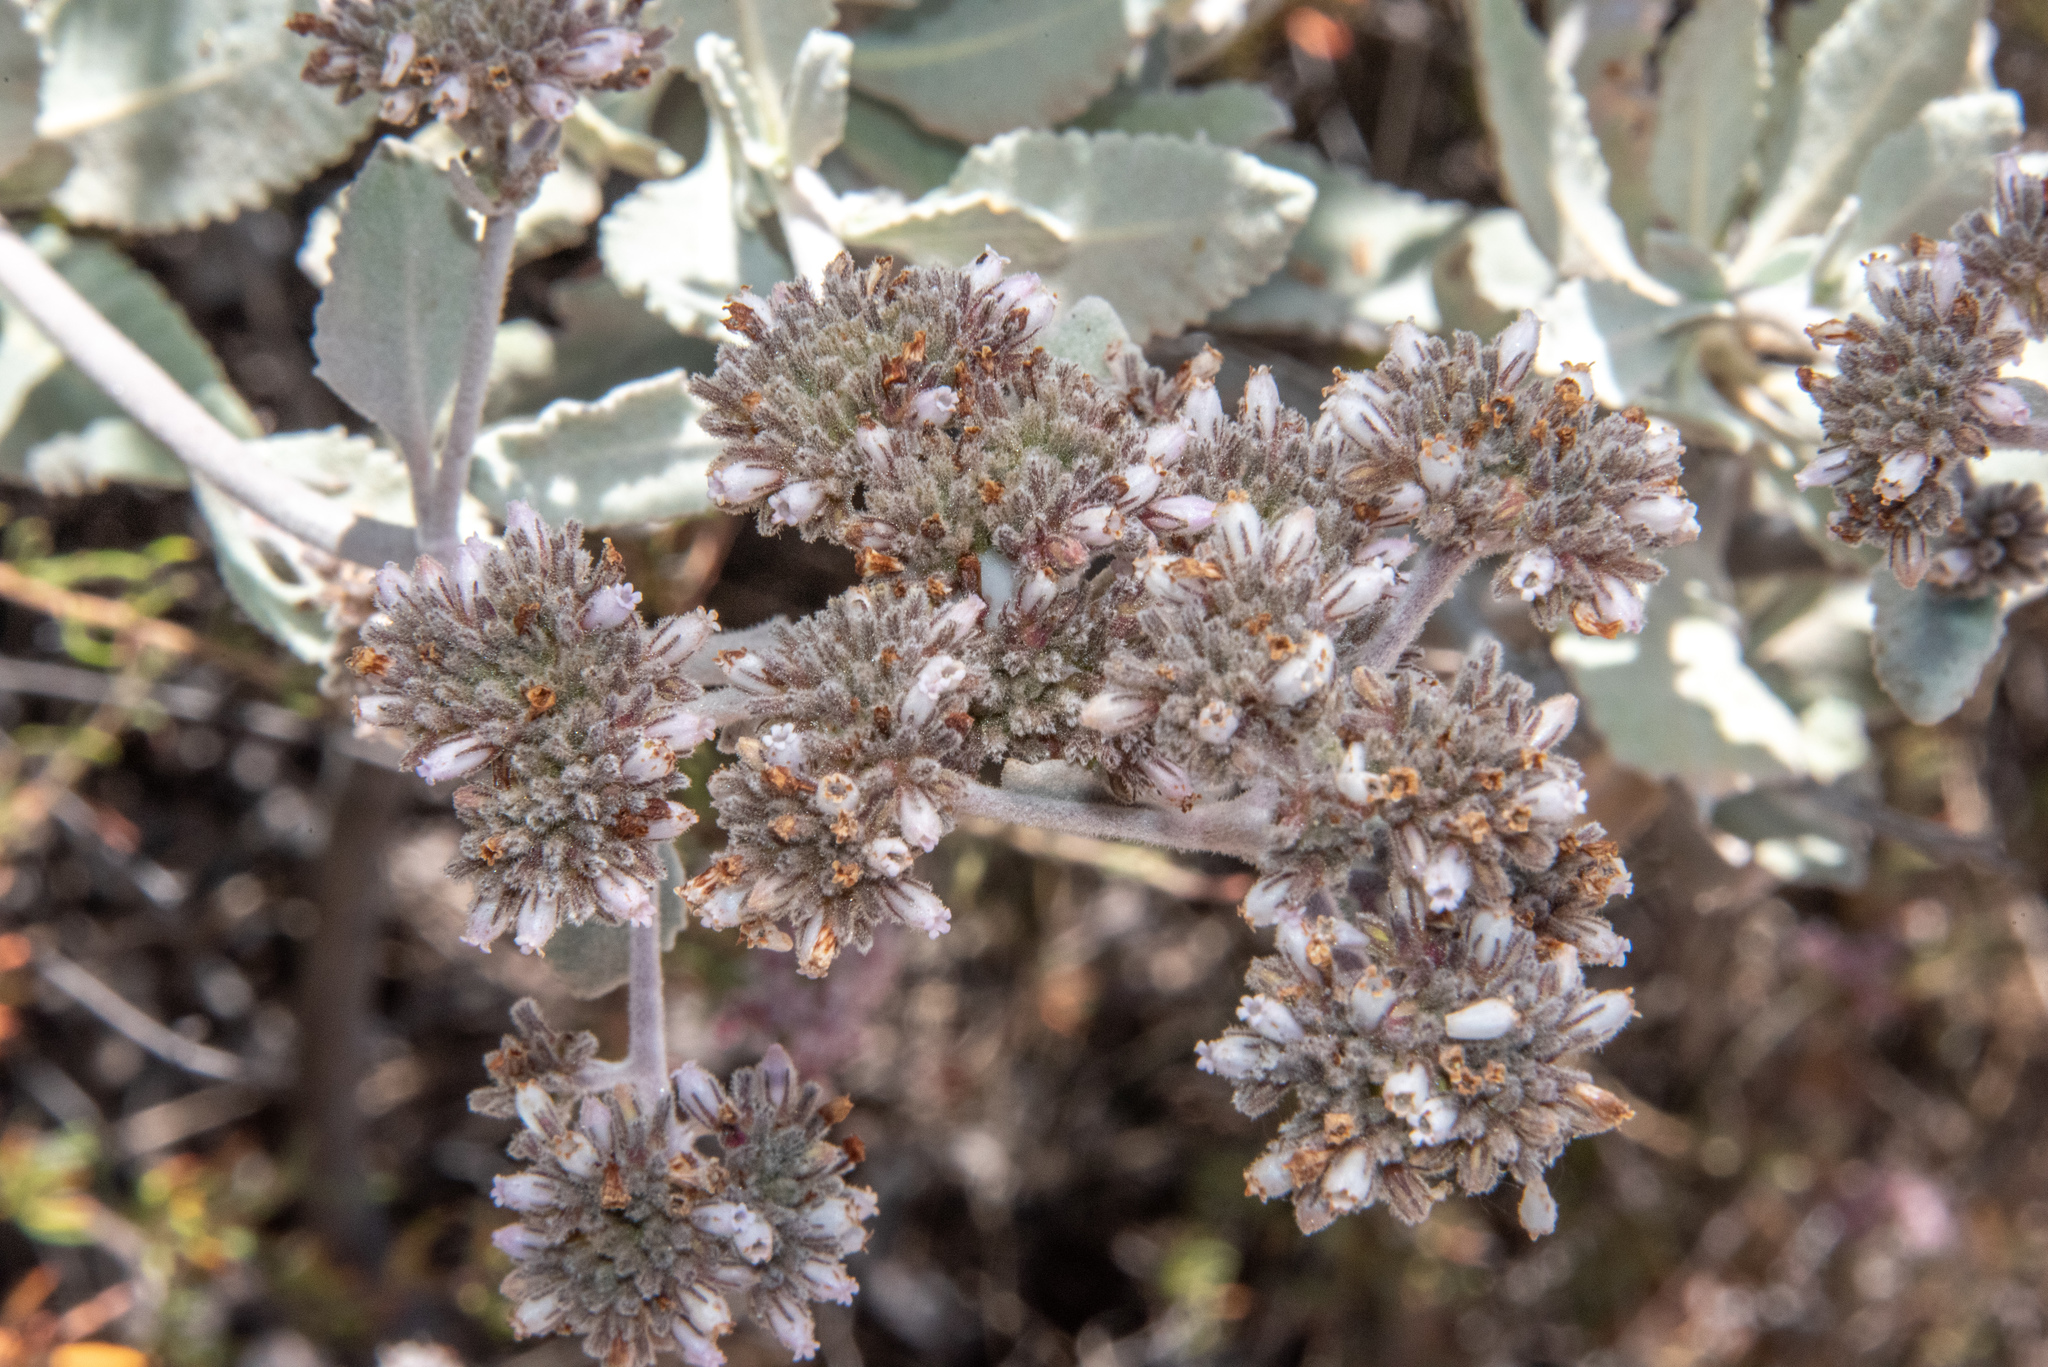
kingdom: Plantae
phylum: Tracheophyta
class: Magnoliopsida
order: Boraginales
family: Namaceae
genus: Eriodictyon
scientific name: Eriodictyon tomentosum
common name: Woolly yerba-santa
